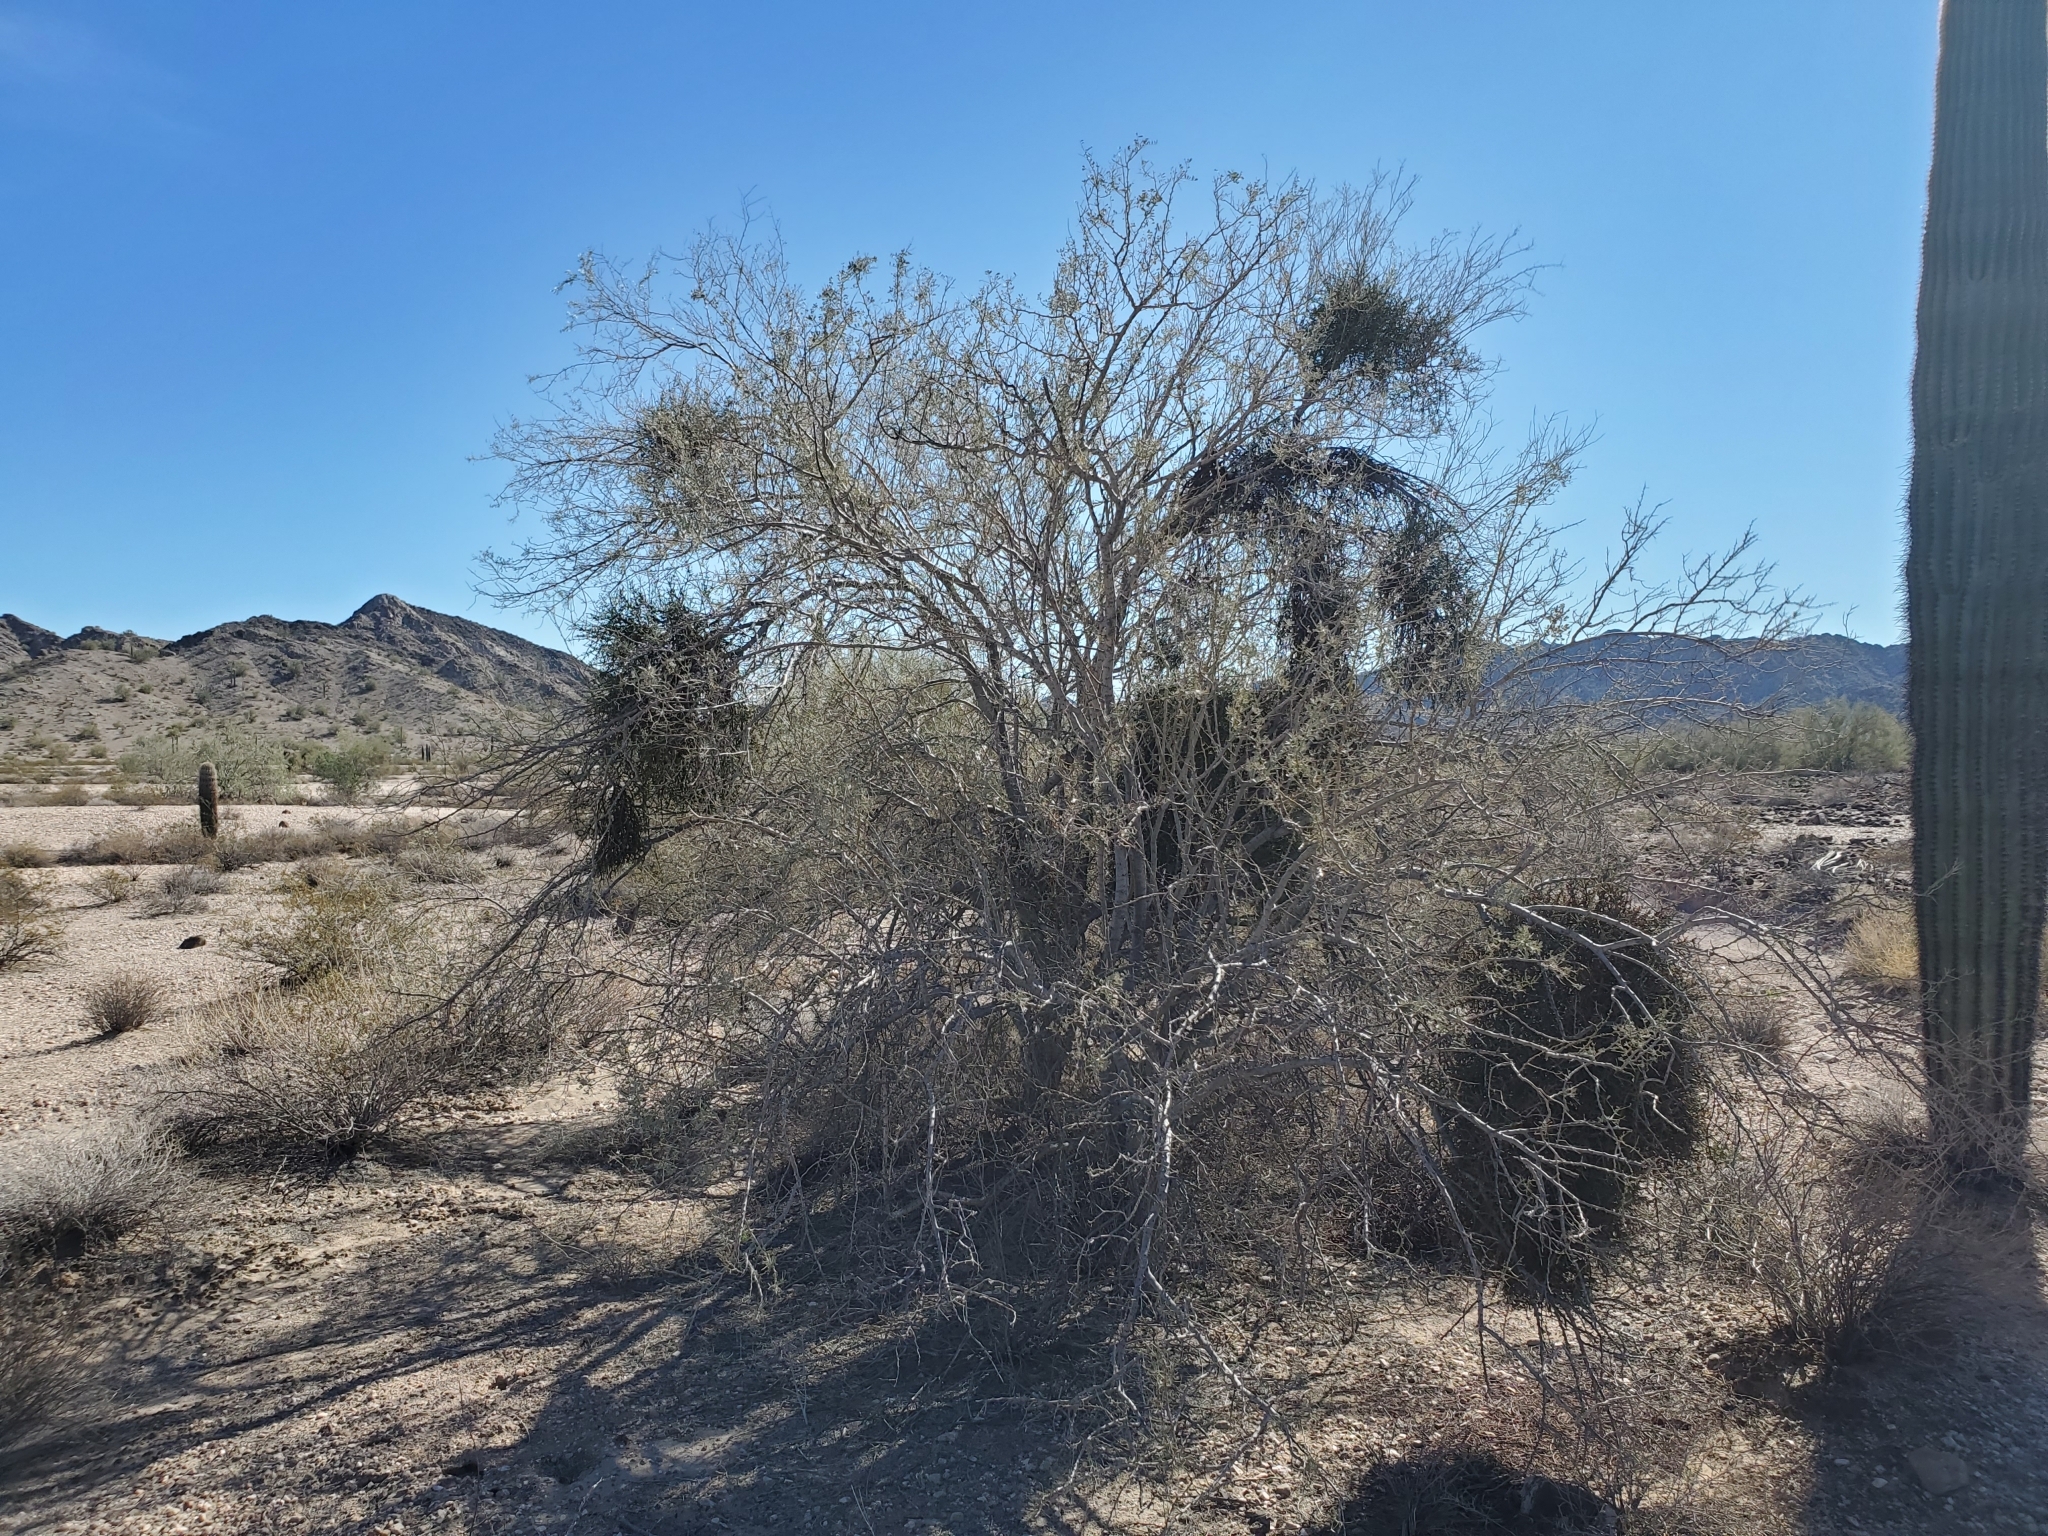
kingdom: Plantae
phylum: Tracheophyta
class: Magnoliopsida
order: Santalales
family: Viscaceae
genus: Phoradendron
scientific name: Phoradendron californicum
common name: Acacia mistletoe
